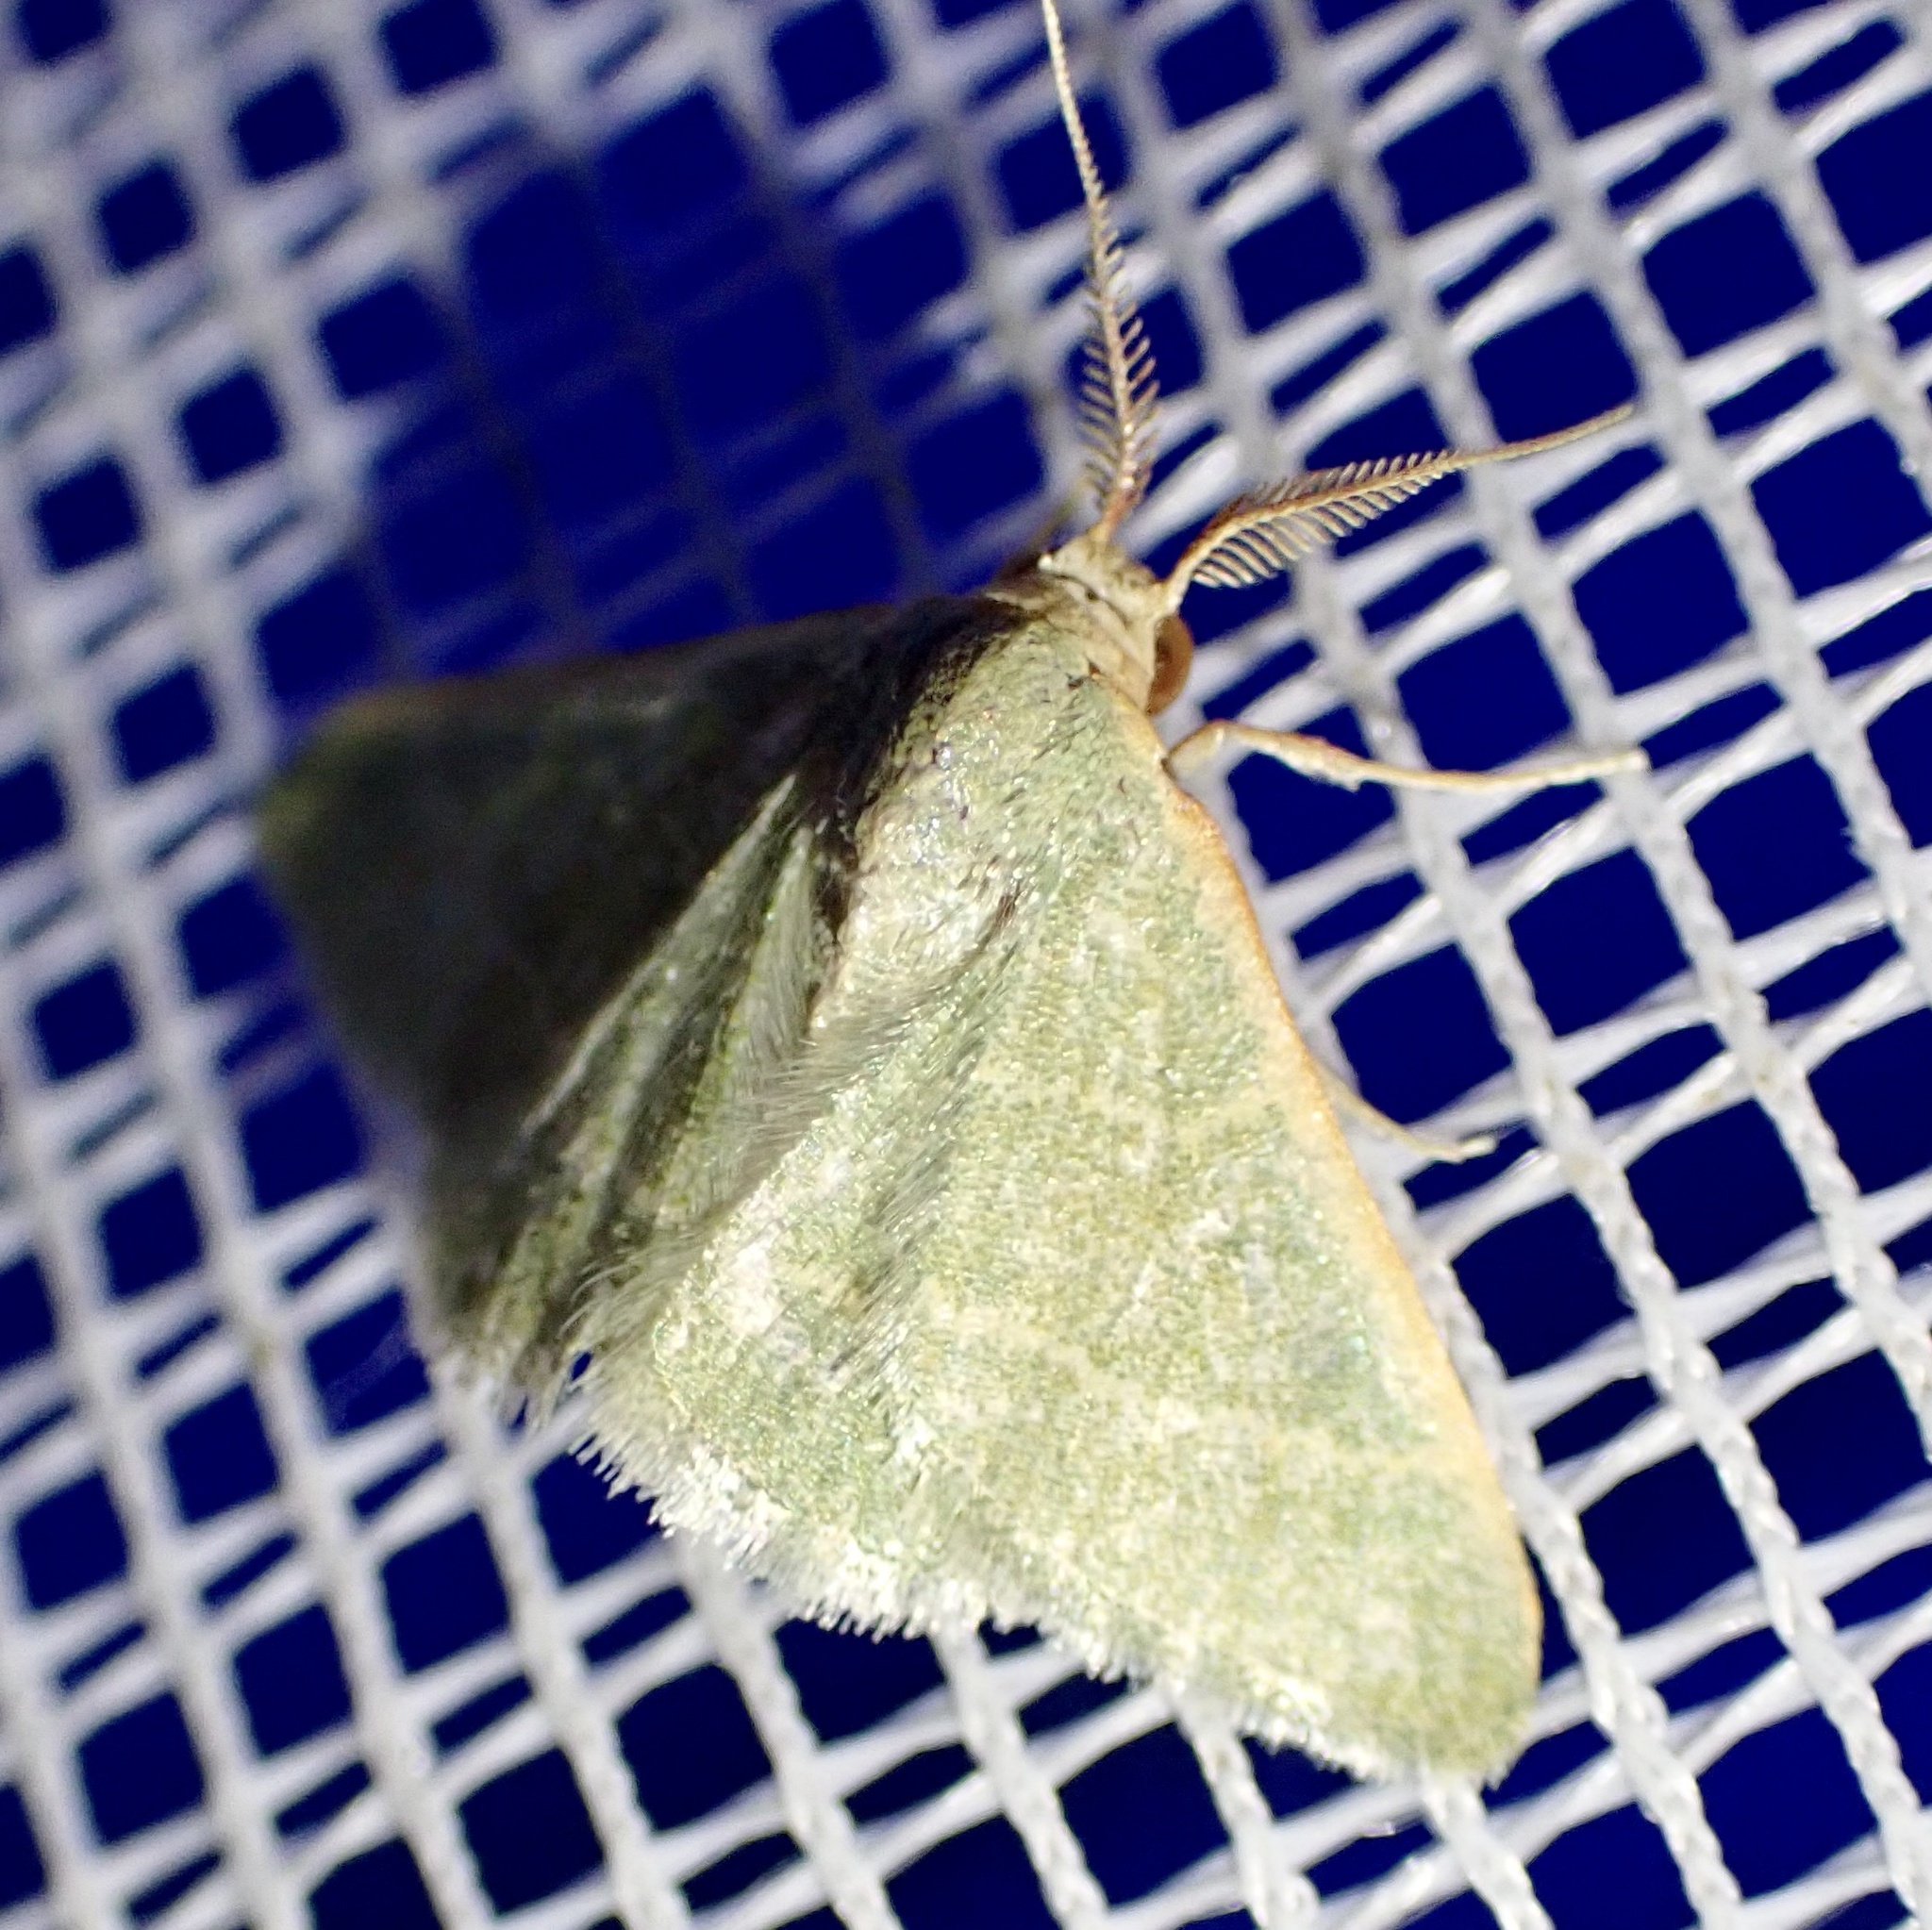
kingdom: Animalia
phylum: Arthropoda
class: Insecta
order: Lepidoptera
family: Geometridae
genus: Microloxia
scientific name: Microloxia herbaria
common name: Herb emerald
